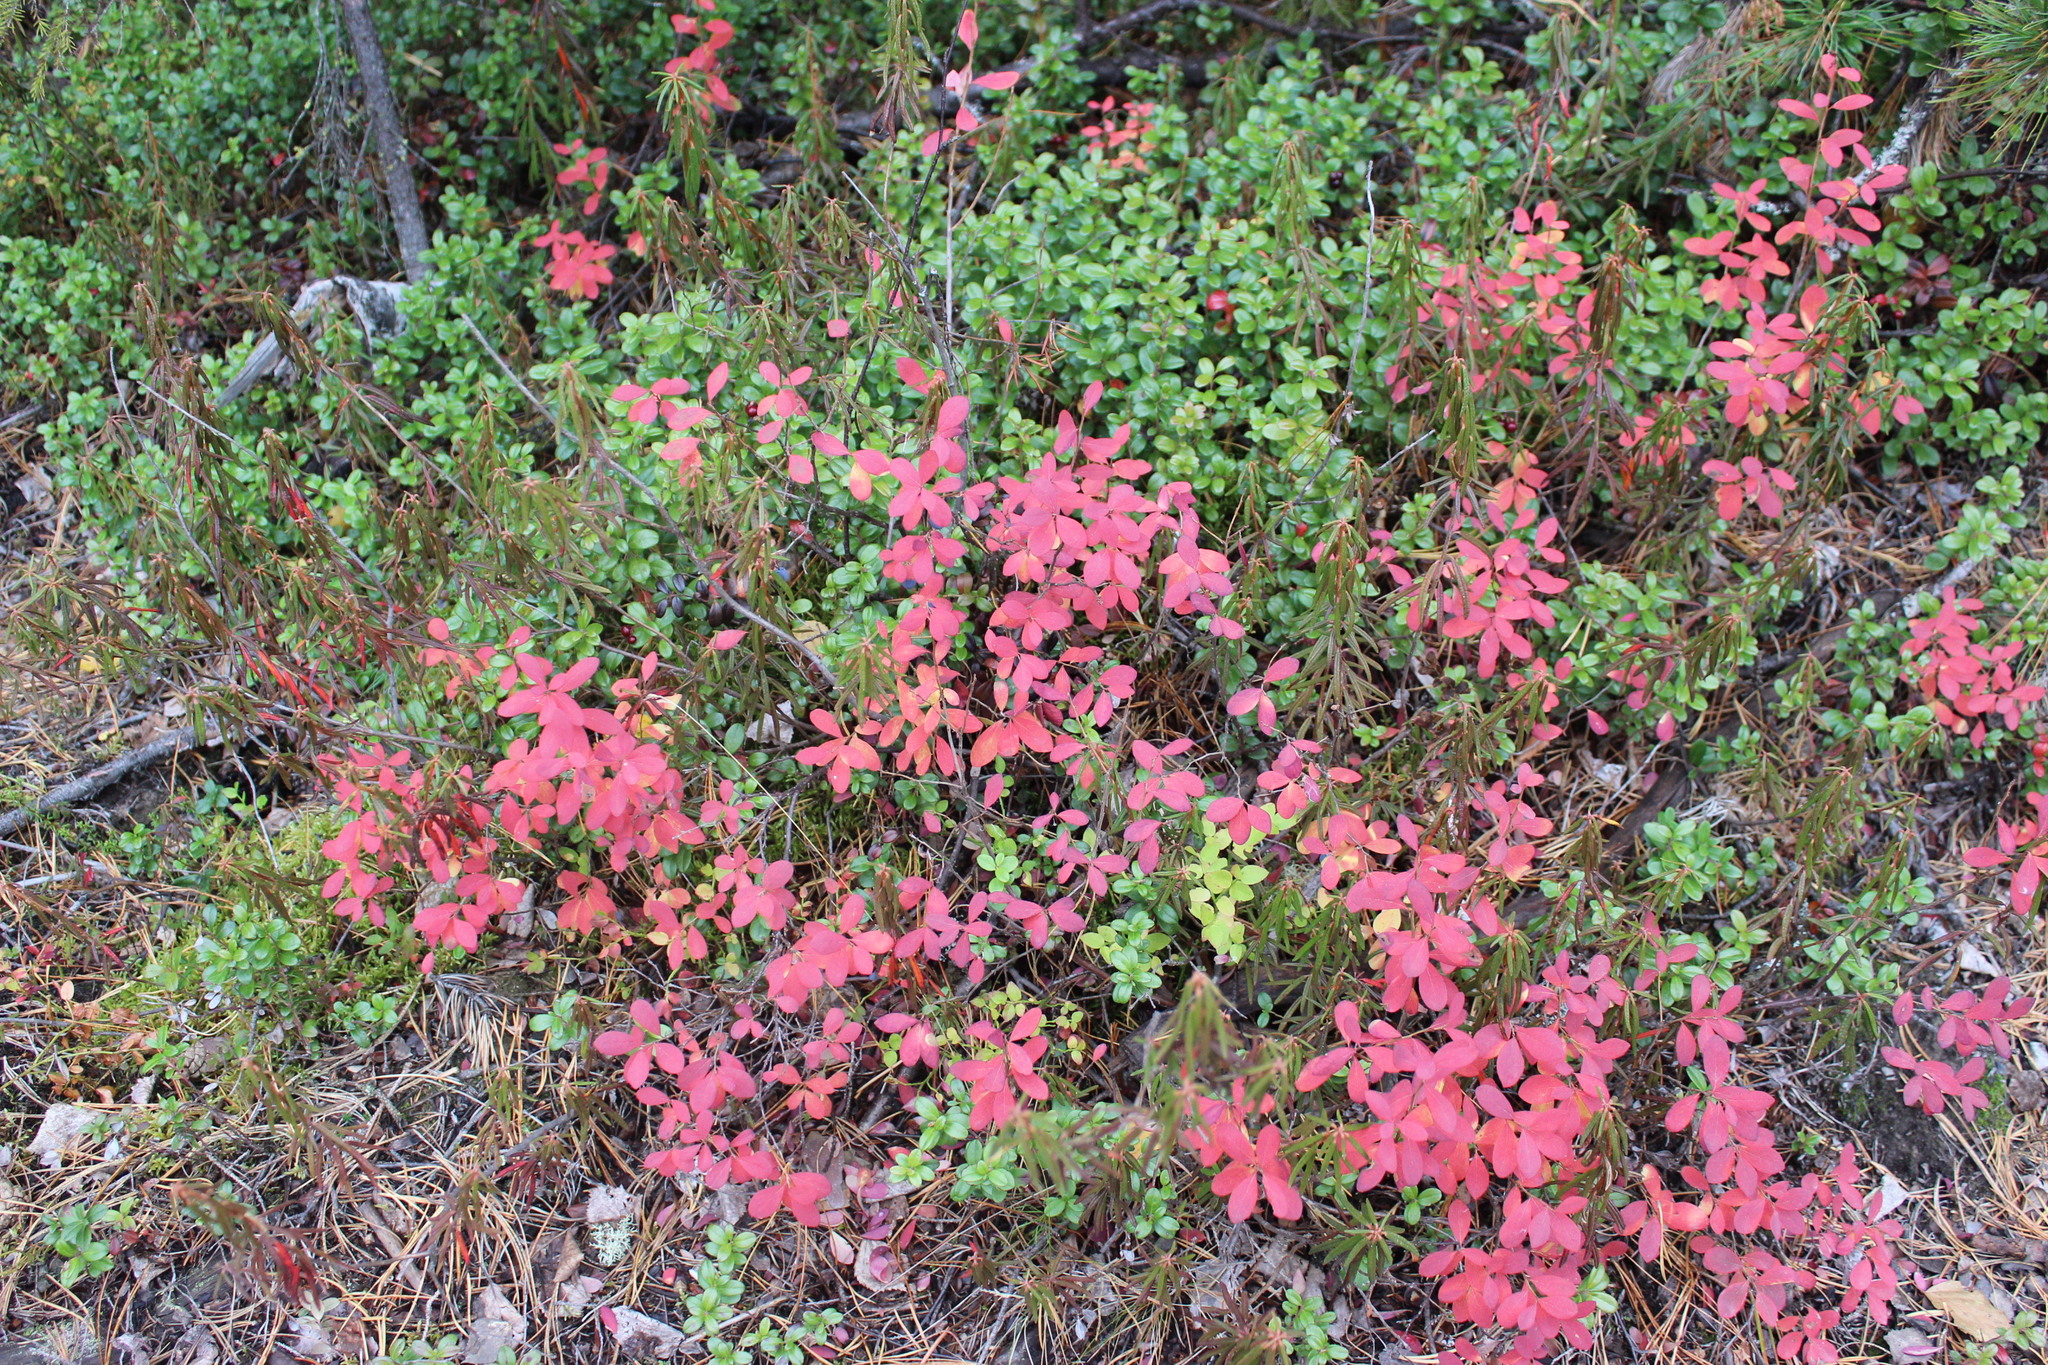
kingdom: Plantae
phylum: Tracheophyta
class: Magnoliopsida
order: Ericales
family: Ericaceae
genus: Vaccinium
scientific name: Vaccinium uliginosum
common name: Bog bilberry
